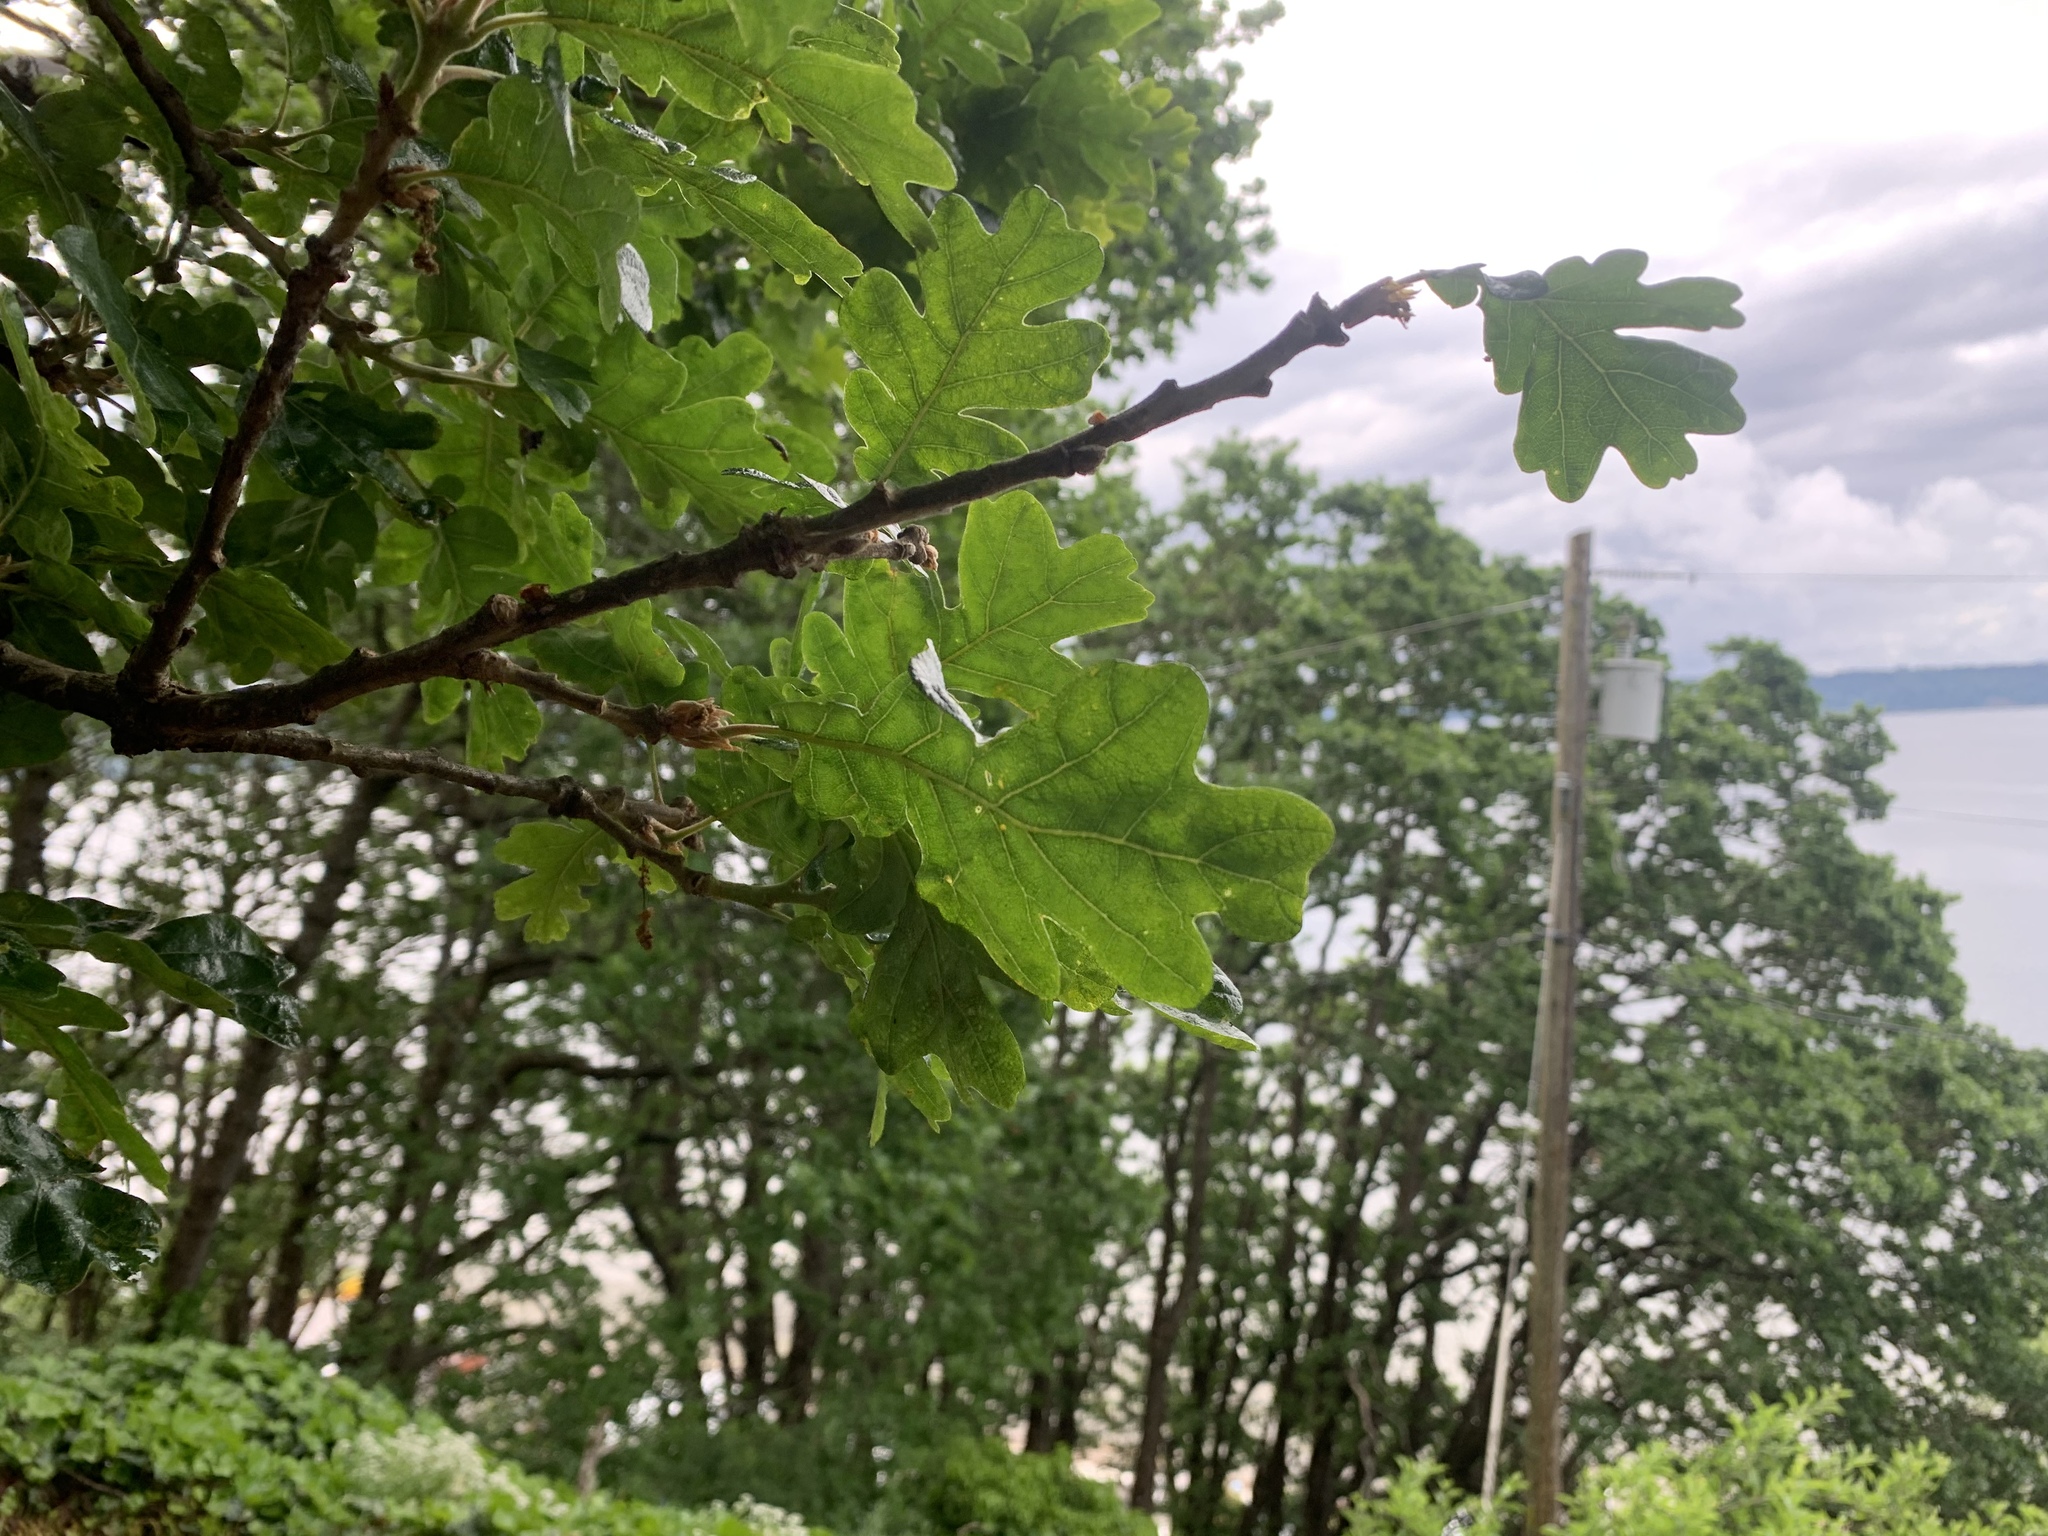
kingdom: Plantae
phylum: Tracheophyta
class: Magnoliopsida
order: Fagales
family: Fagaceae
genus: Quercus
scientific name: Quercus garryana
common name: Garry oak
